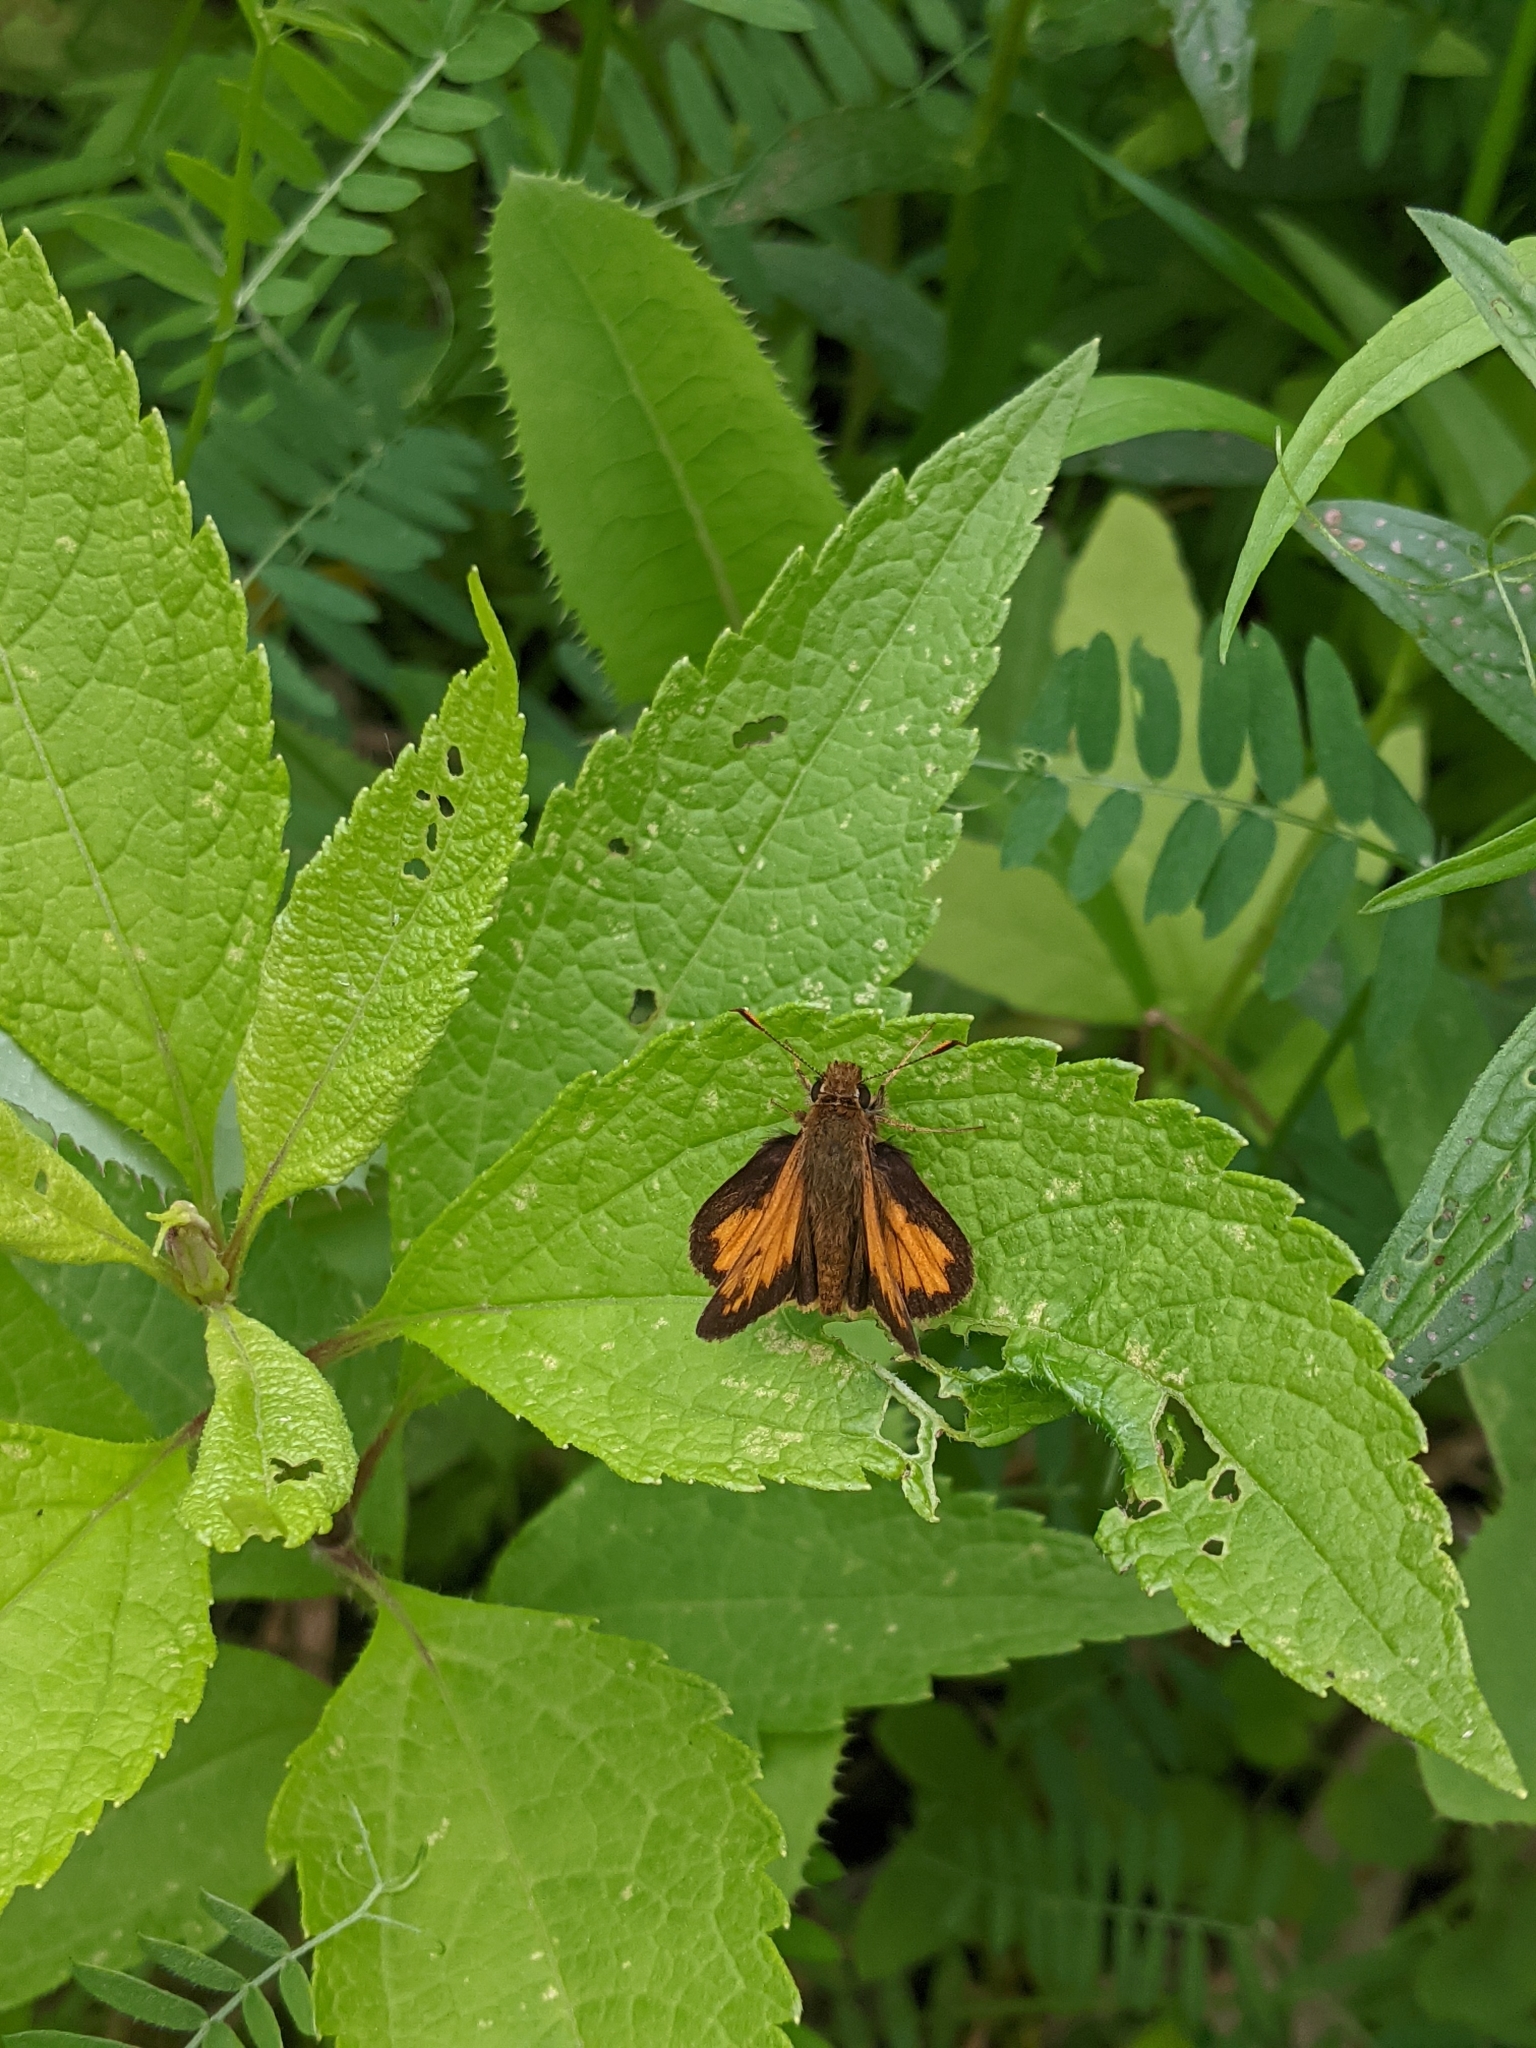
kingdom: Animalia
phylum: Arthropoda
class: Insecta
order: Lepidoptera
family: Hesperiidae
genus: Lon
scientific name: Lon hobomok
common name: Hobomok skipper
